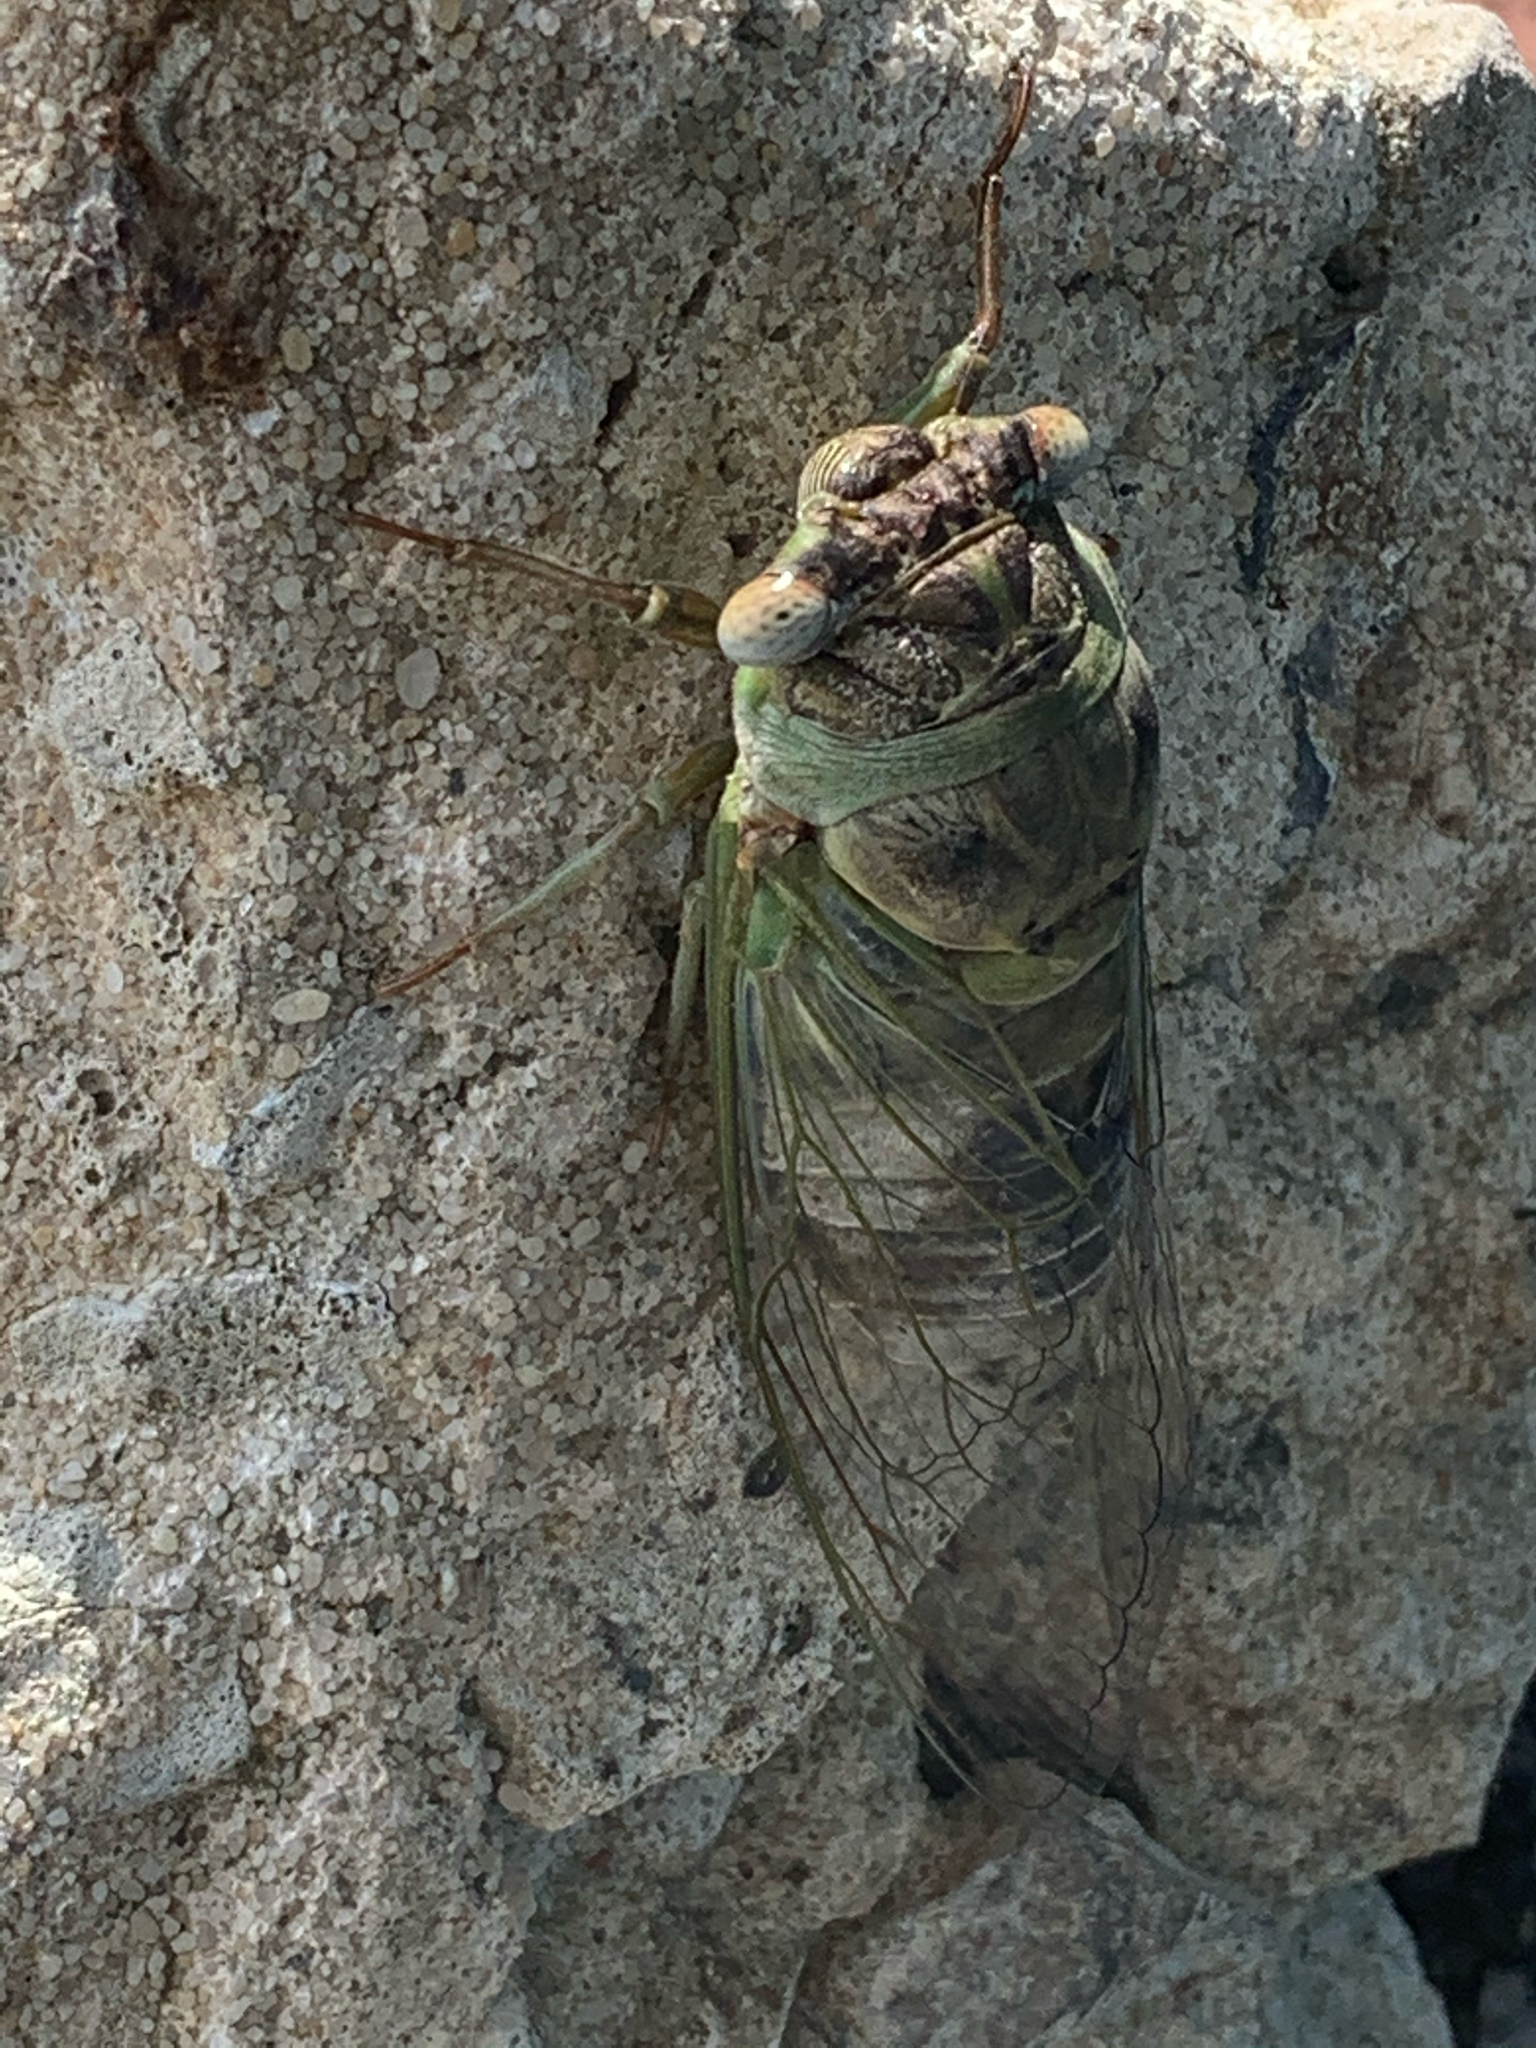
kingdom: Animalia
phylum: Arthropoda
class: Insecta
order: Hemiptera
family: Cicadidae
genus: Diceroprocta
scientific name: Diceroprocta grossa
